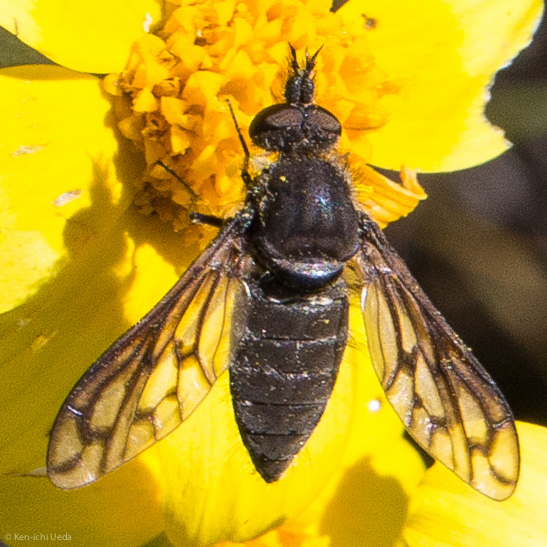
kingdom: Animalia
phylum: Arthropoda
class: Insecta
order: Diptera
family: Bombyliidae
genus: Conophorus
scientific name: Conophorus fenestratus
